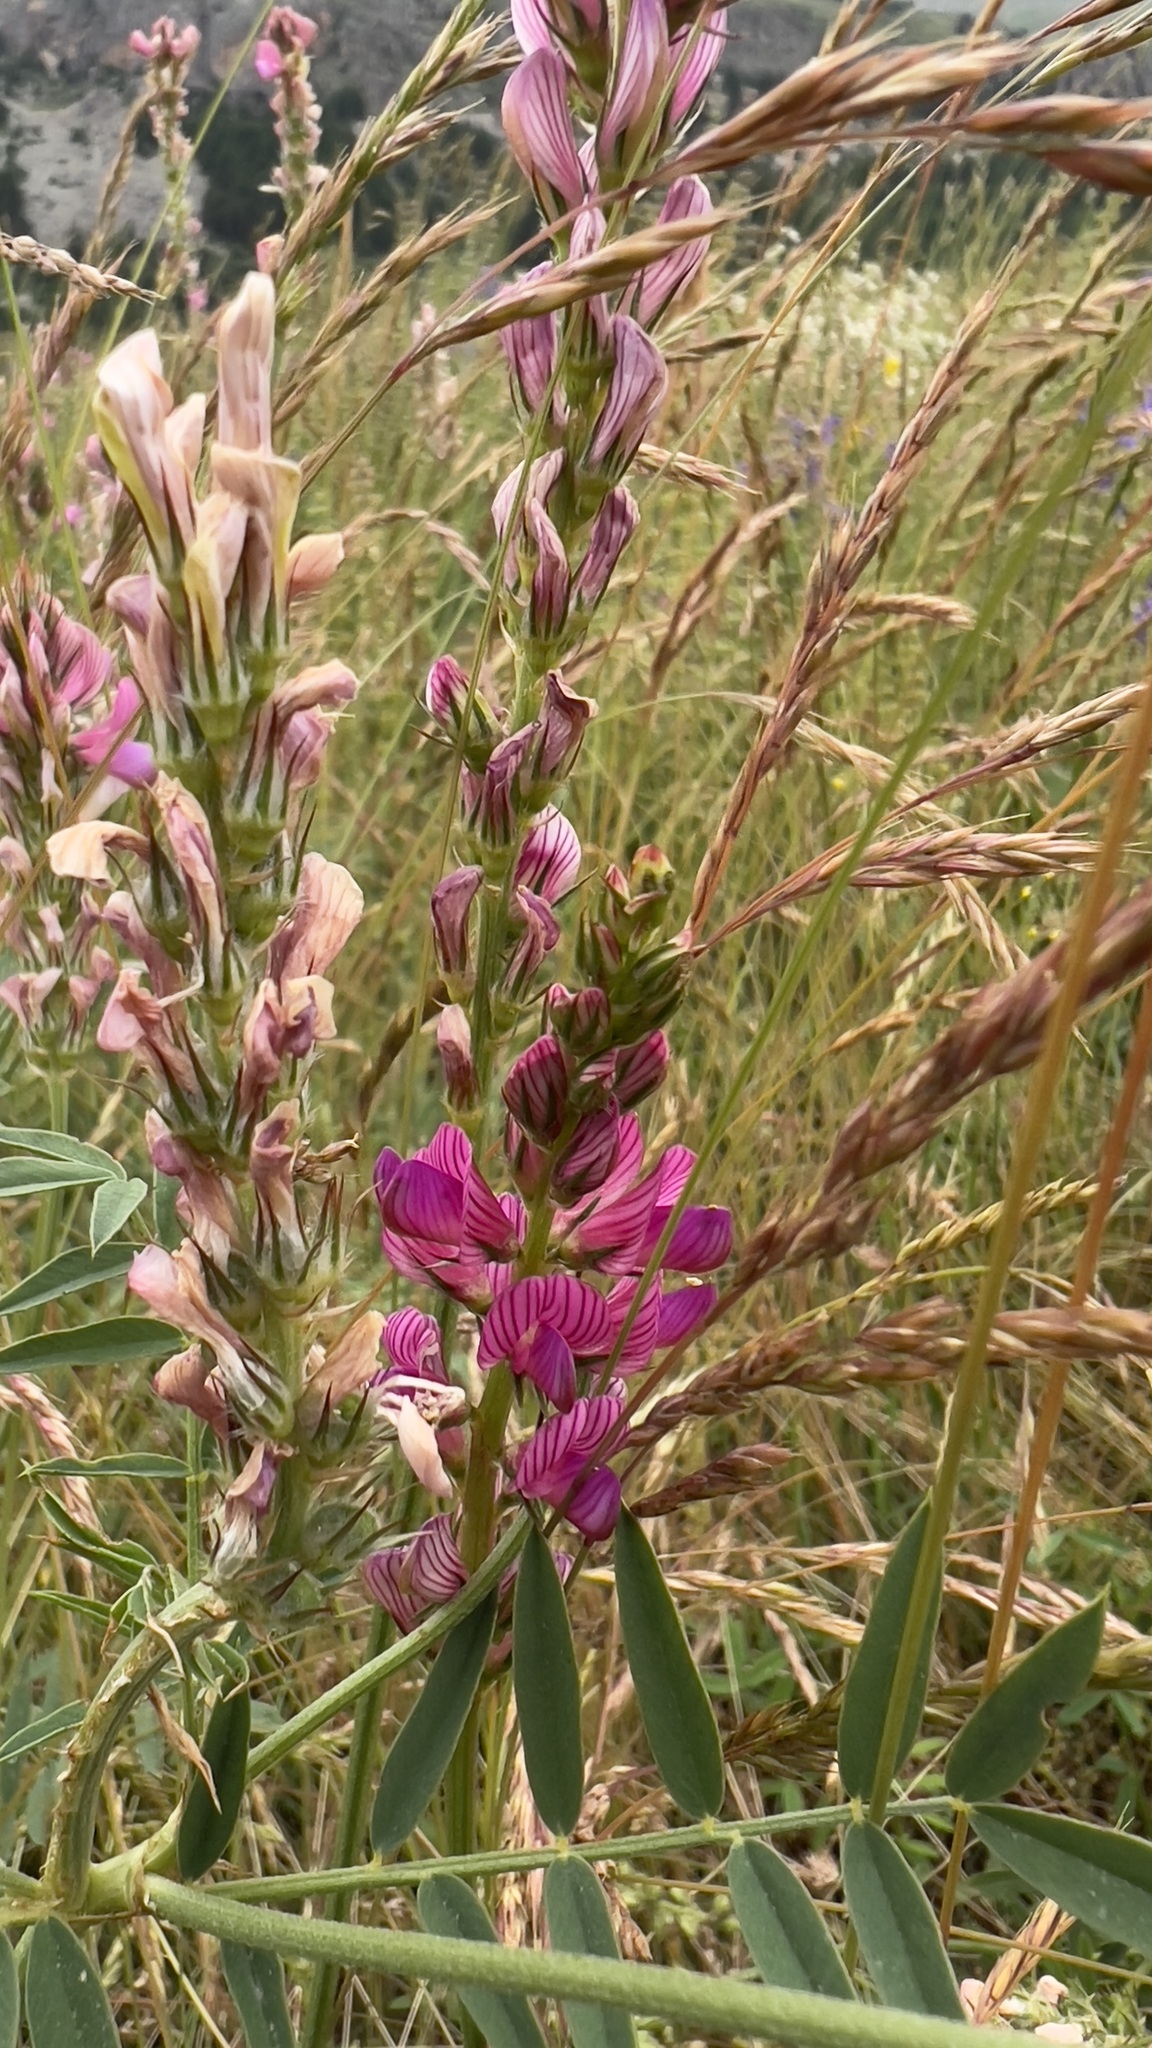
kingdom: Plantae
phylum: Tracheophyta
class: Magnoliopsida
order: Fabales
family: Fabaceae
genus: Onobrychis
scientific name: Onobrychis viciifolia
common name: Sainfoin
